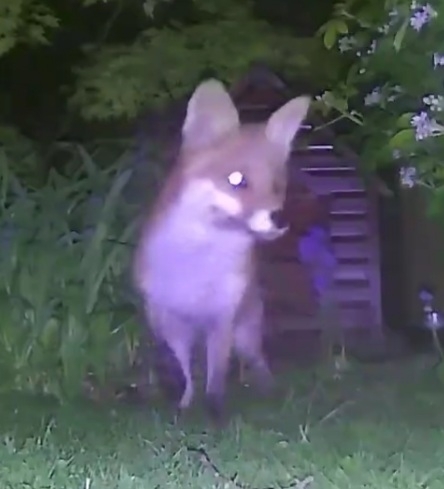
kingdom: Animalia
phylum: Chordata
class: Mammalia
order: Carnivora
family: Canidae
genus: Vulpes
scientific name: Vulpes vulpes
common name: Red fox
